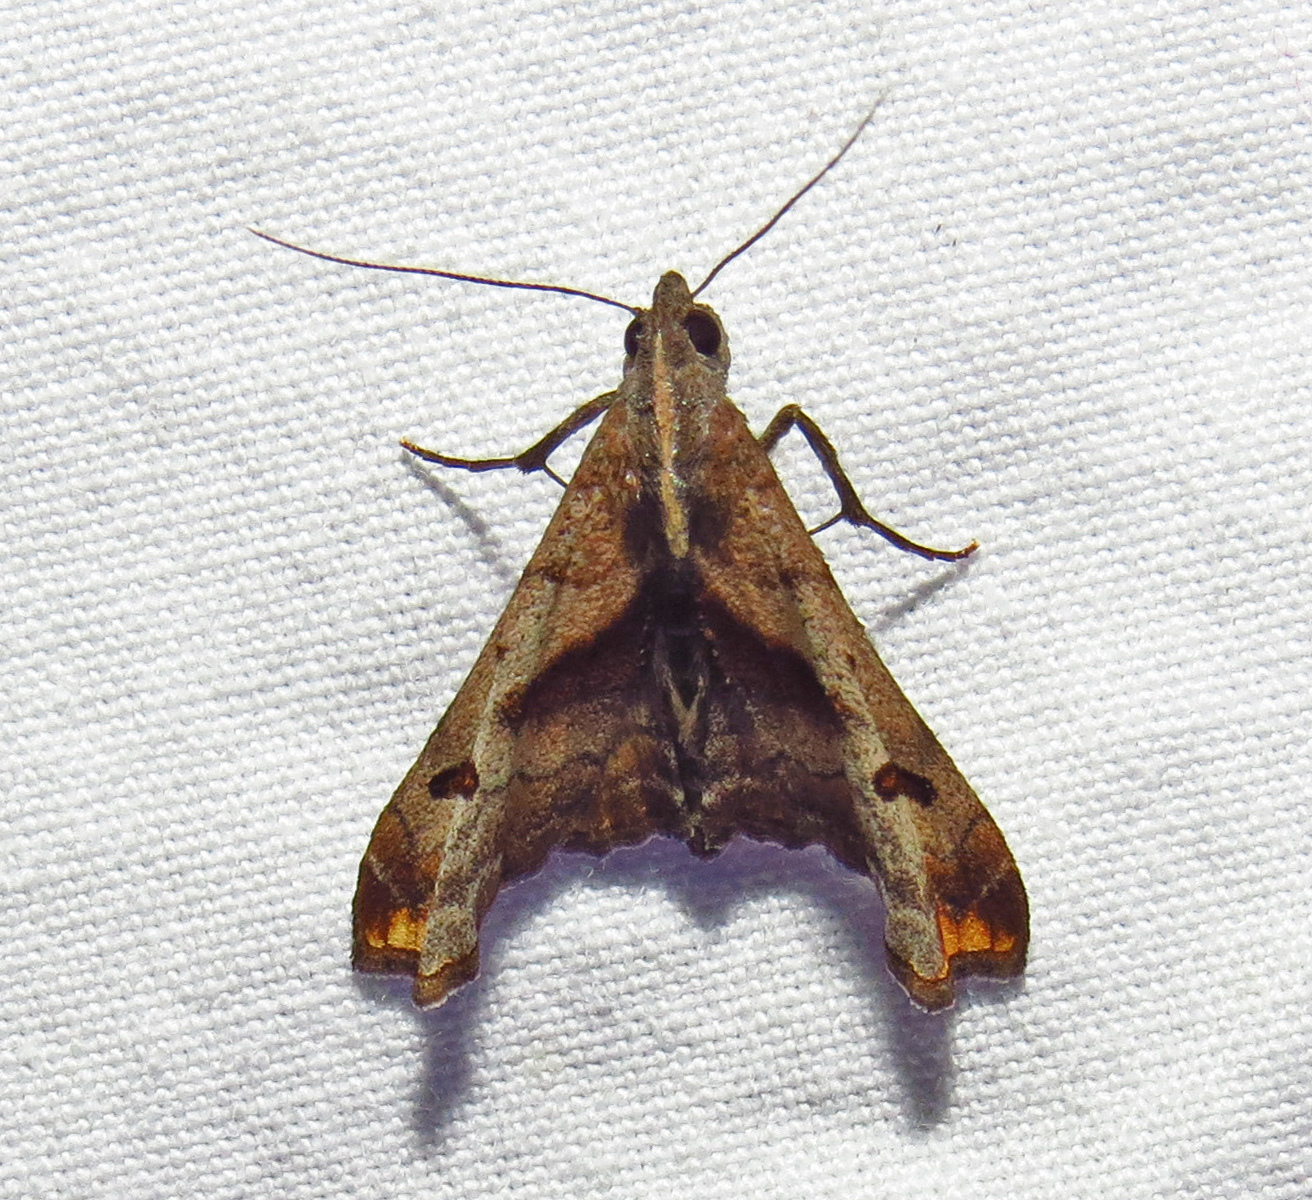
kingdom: Animalia
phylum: Arthropoda
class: Insecta
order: Lepidoptera
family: Erebidae
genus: Palthis
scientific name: Palthis angulalis
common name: Dark-spotted palthis moth
